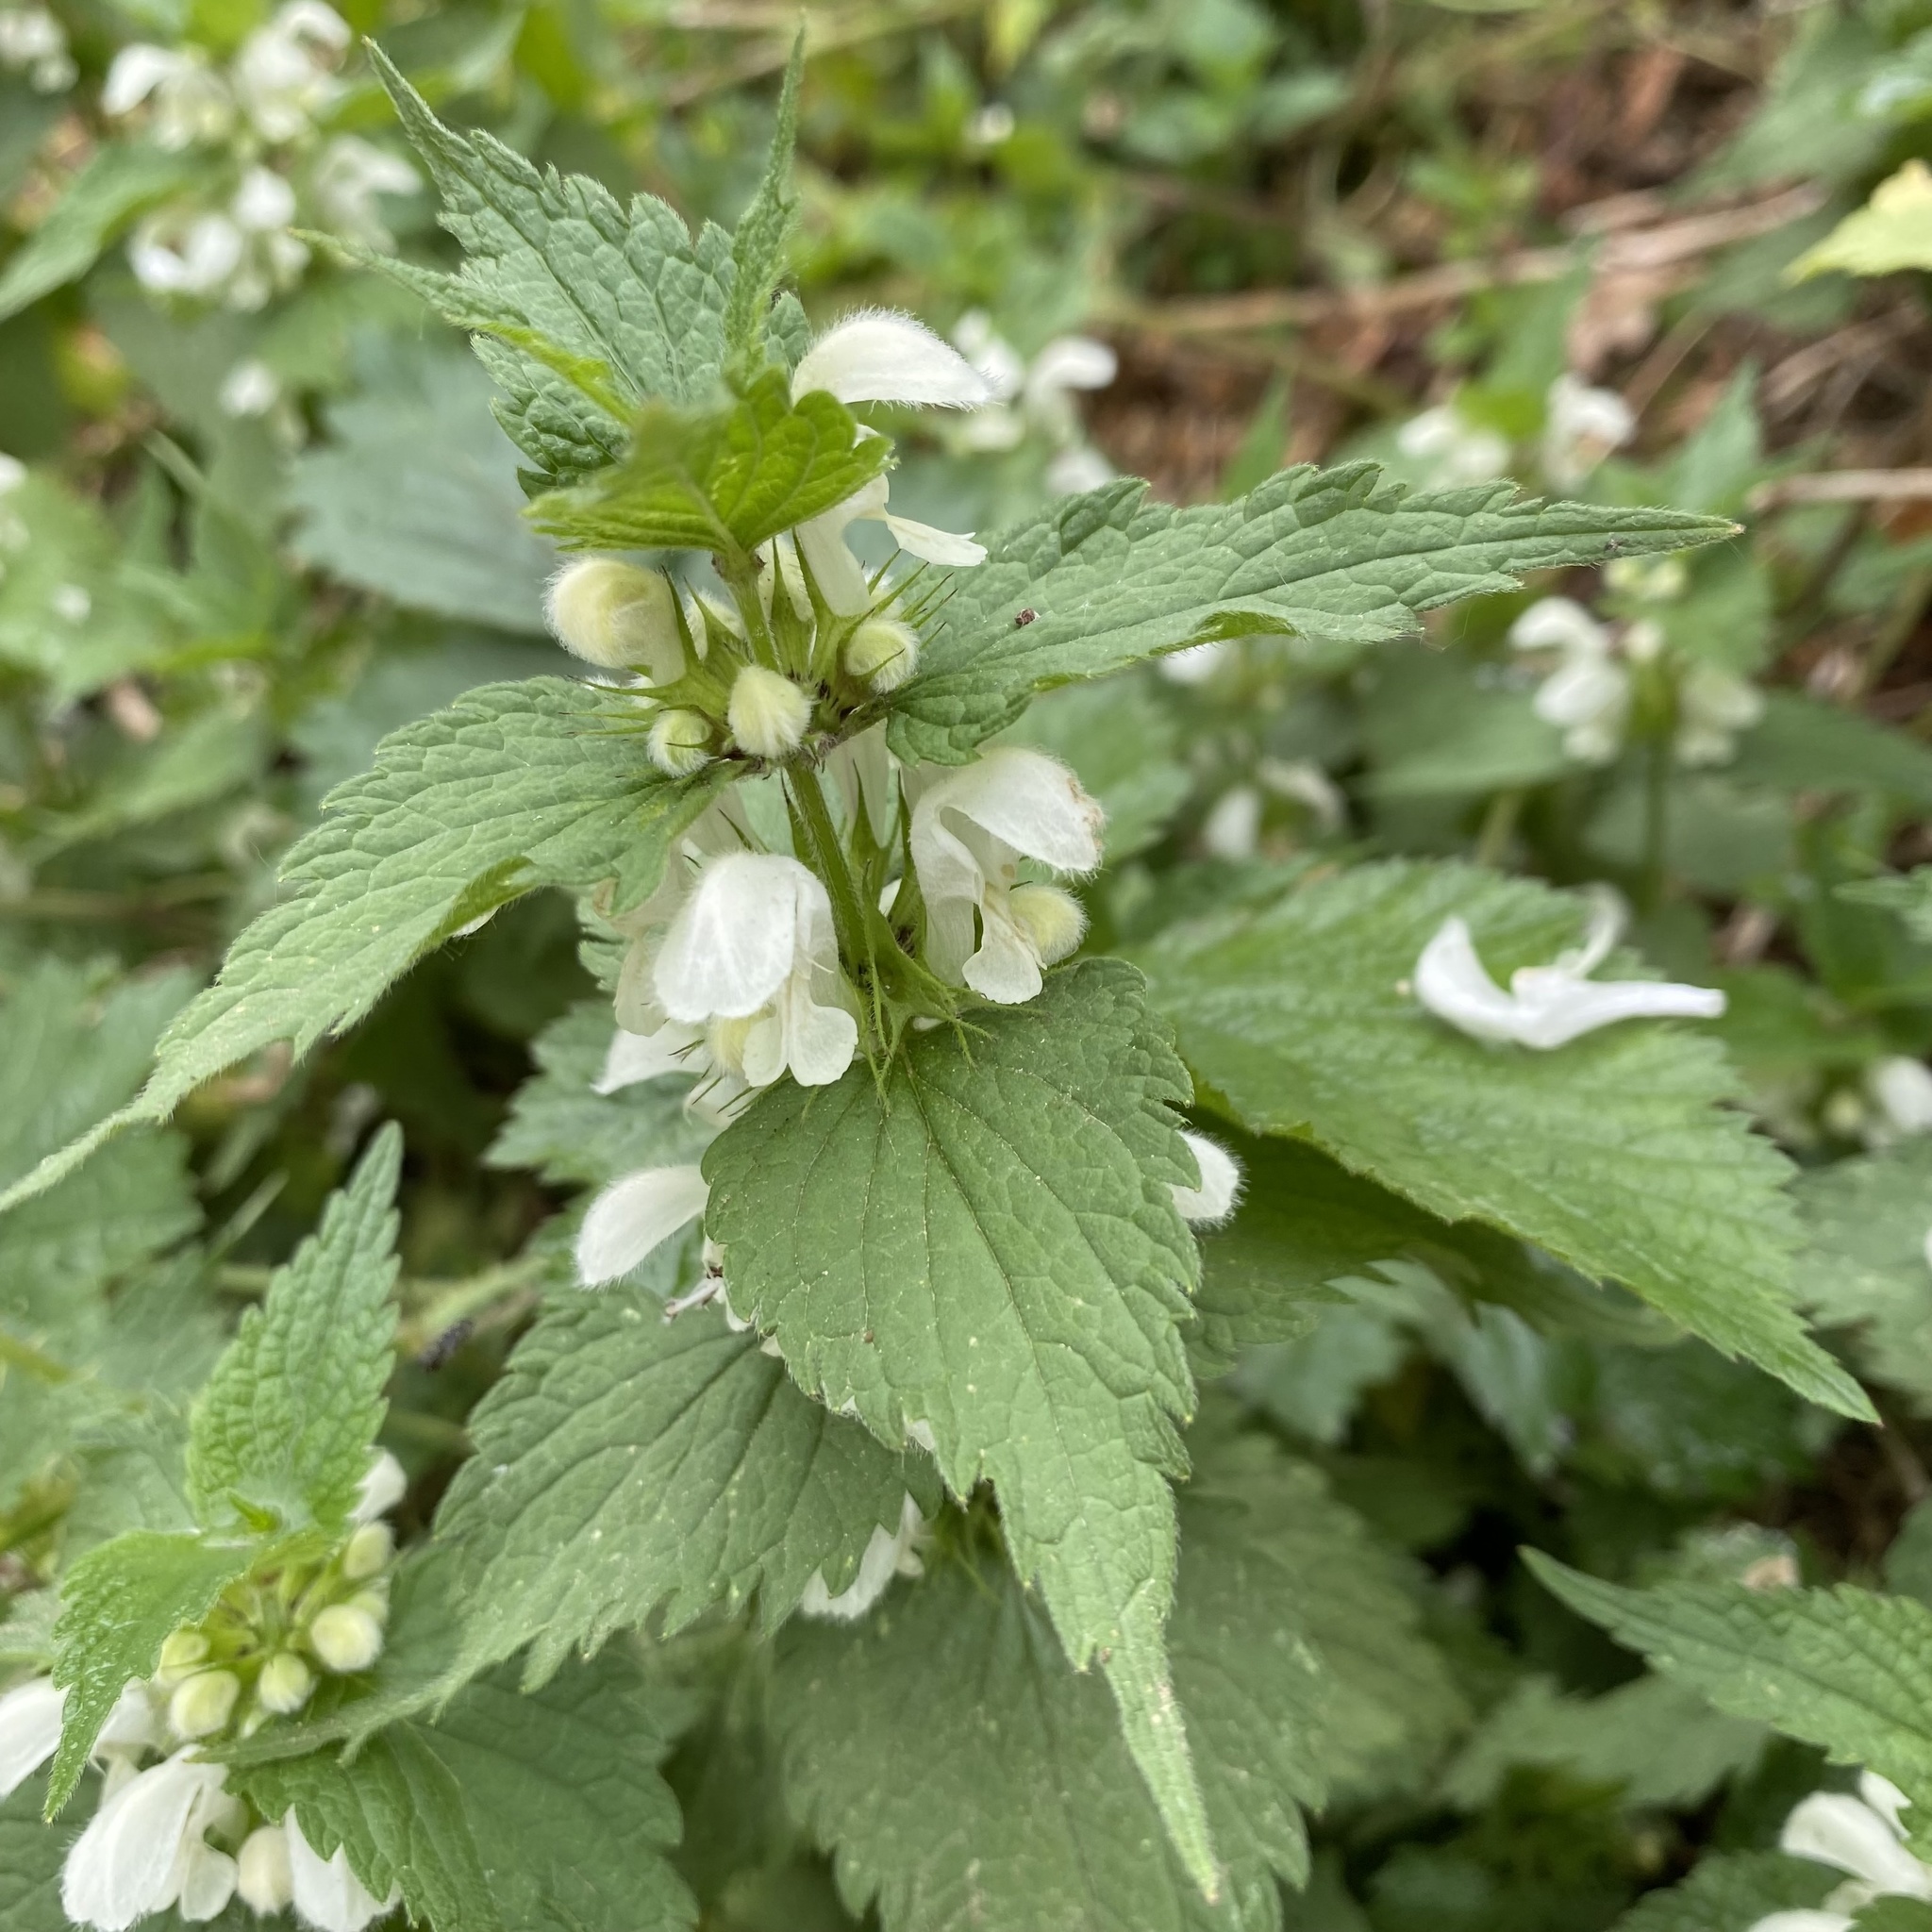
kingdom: Plantae
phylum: Tracheophyta
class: Magnoliopsida
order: Lamiales
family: Lamiaceae
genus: Lamium
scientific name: Lamium album
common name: White dead-nettle
